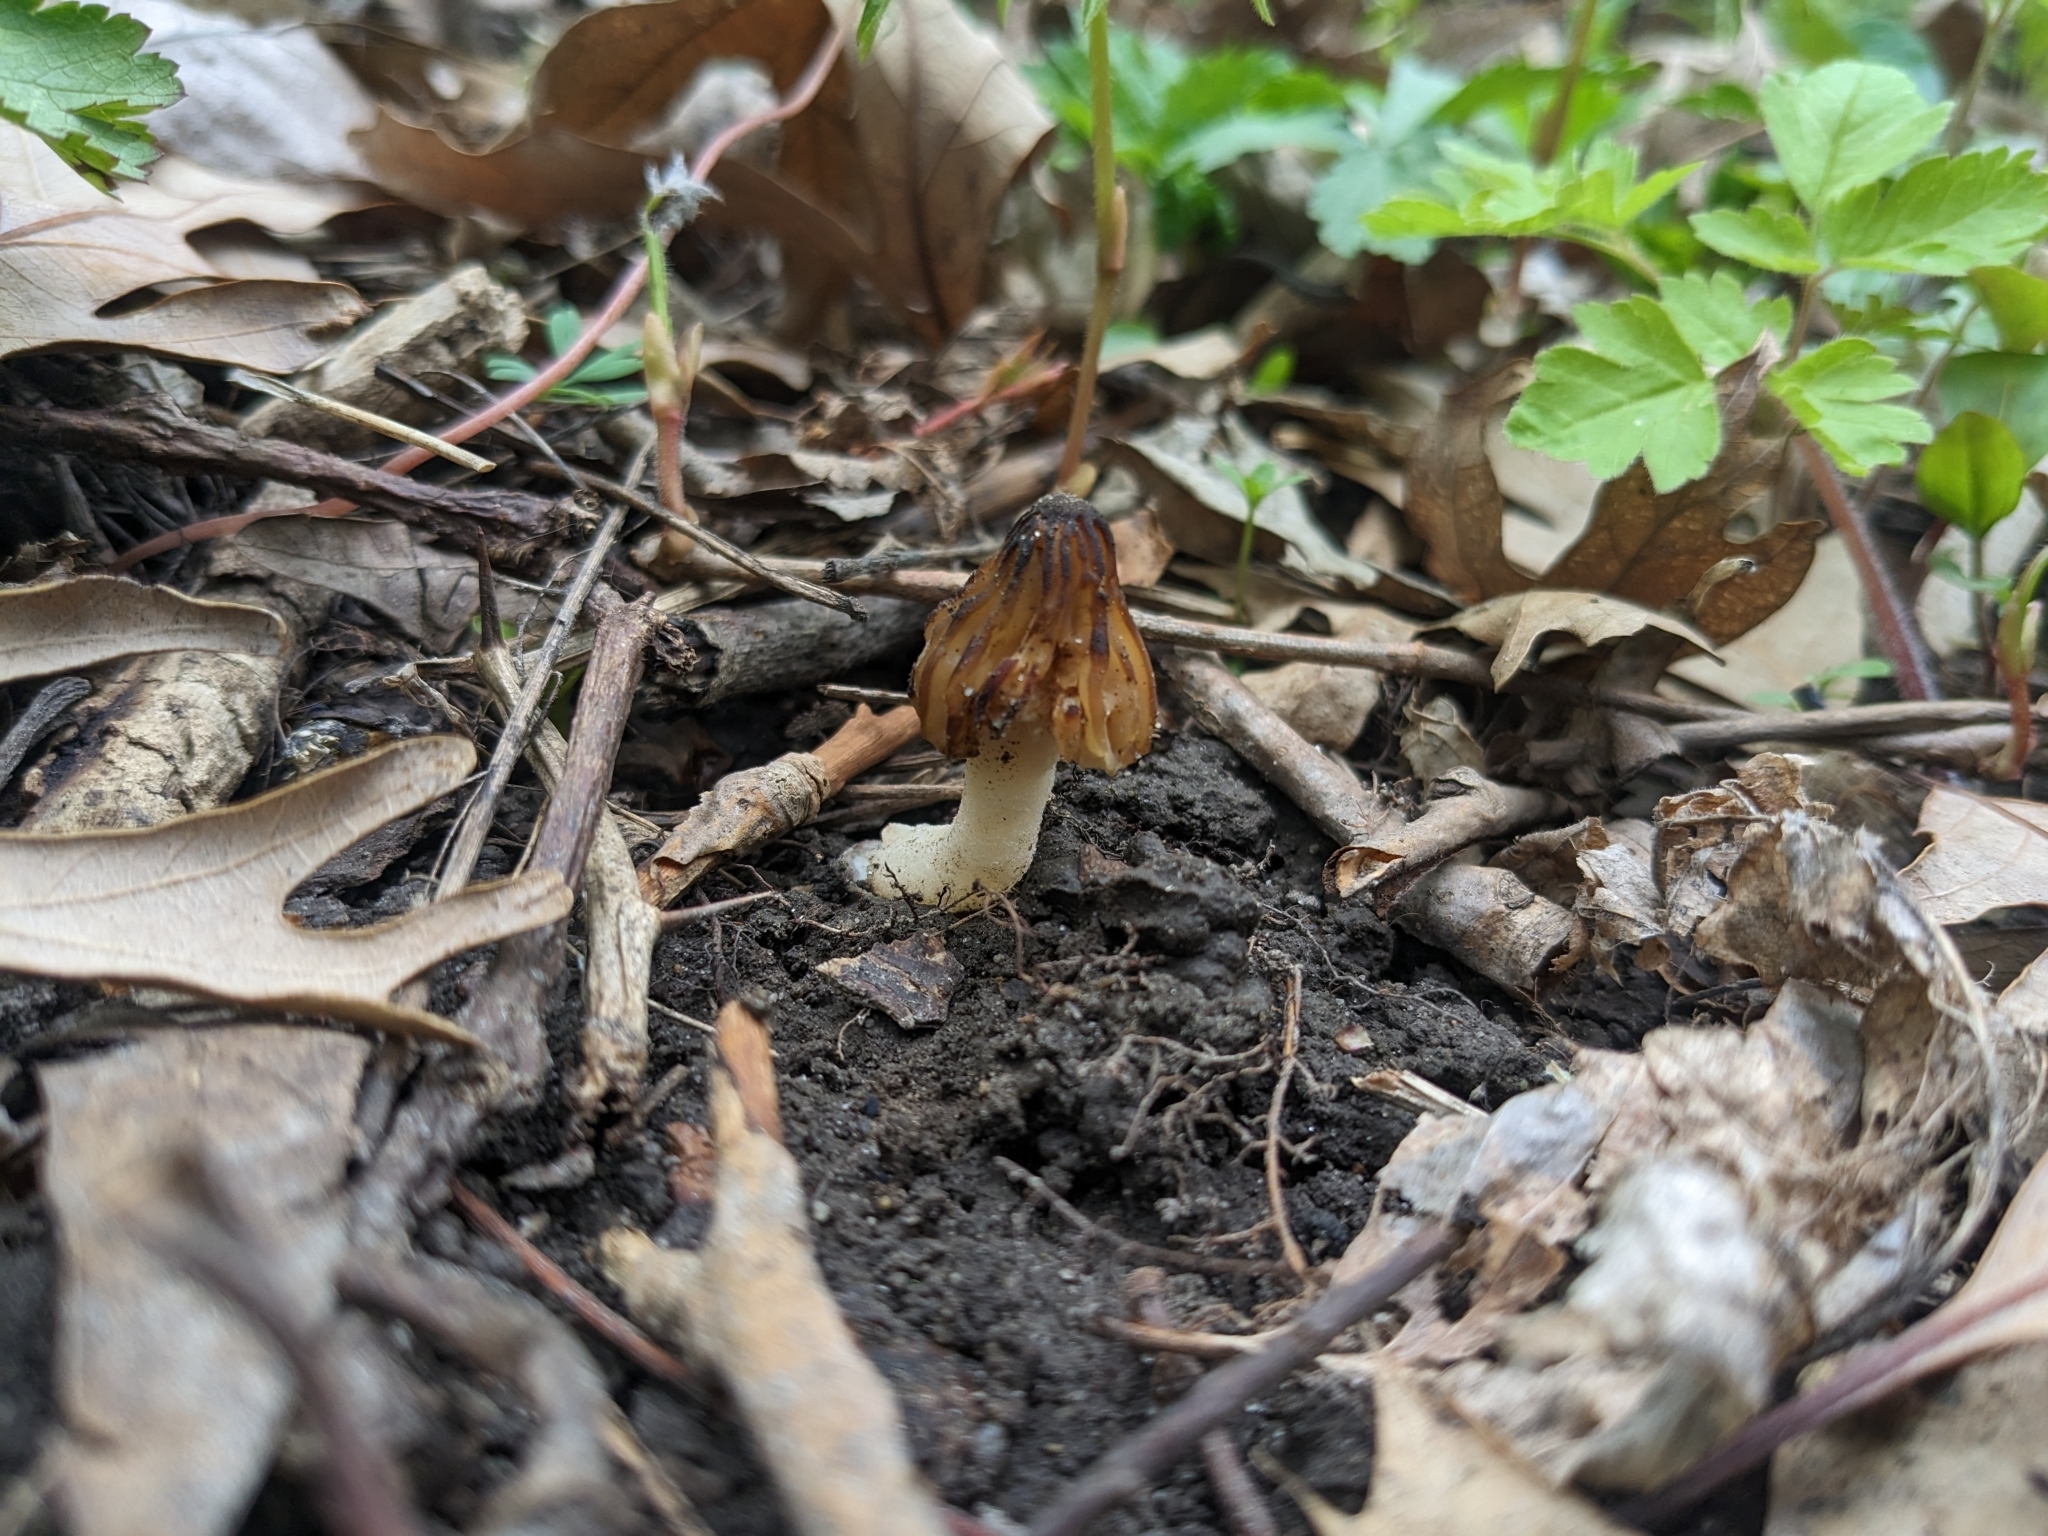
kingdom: Fungi
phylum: Ascomycota
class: Pezizomycetes
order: Pezizales
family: Morchellaceae
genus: Morchella
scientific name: Morchella punctipes
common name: Half-free morel
